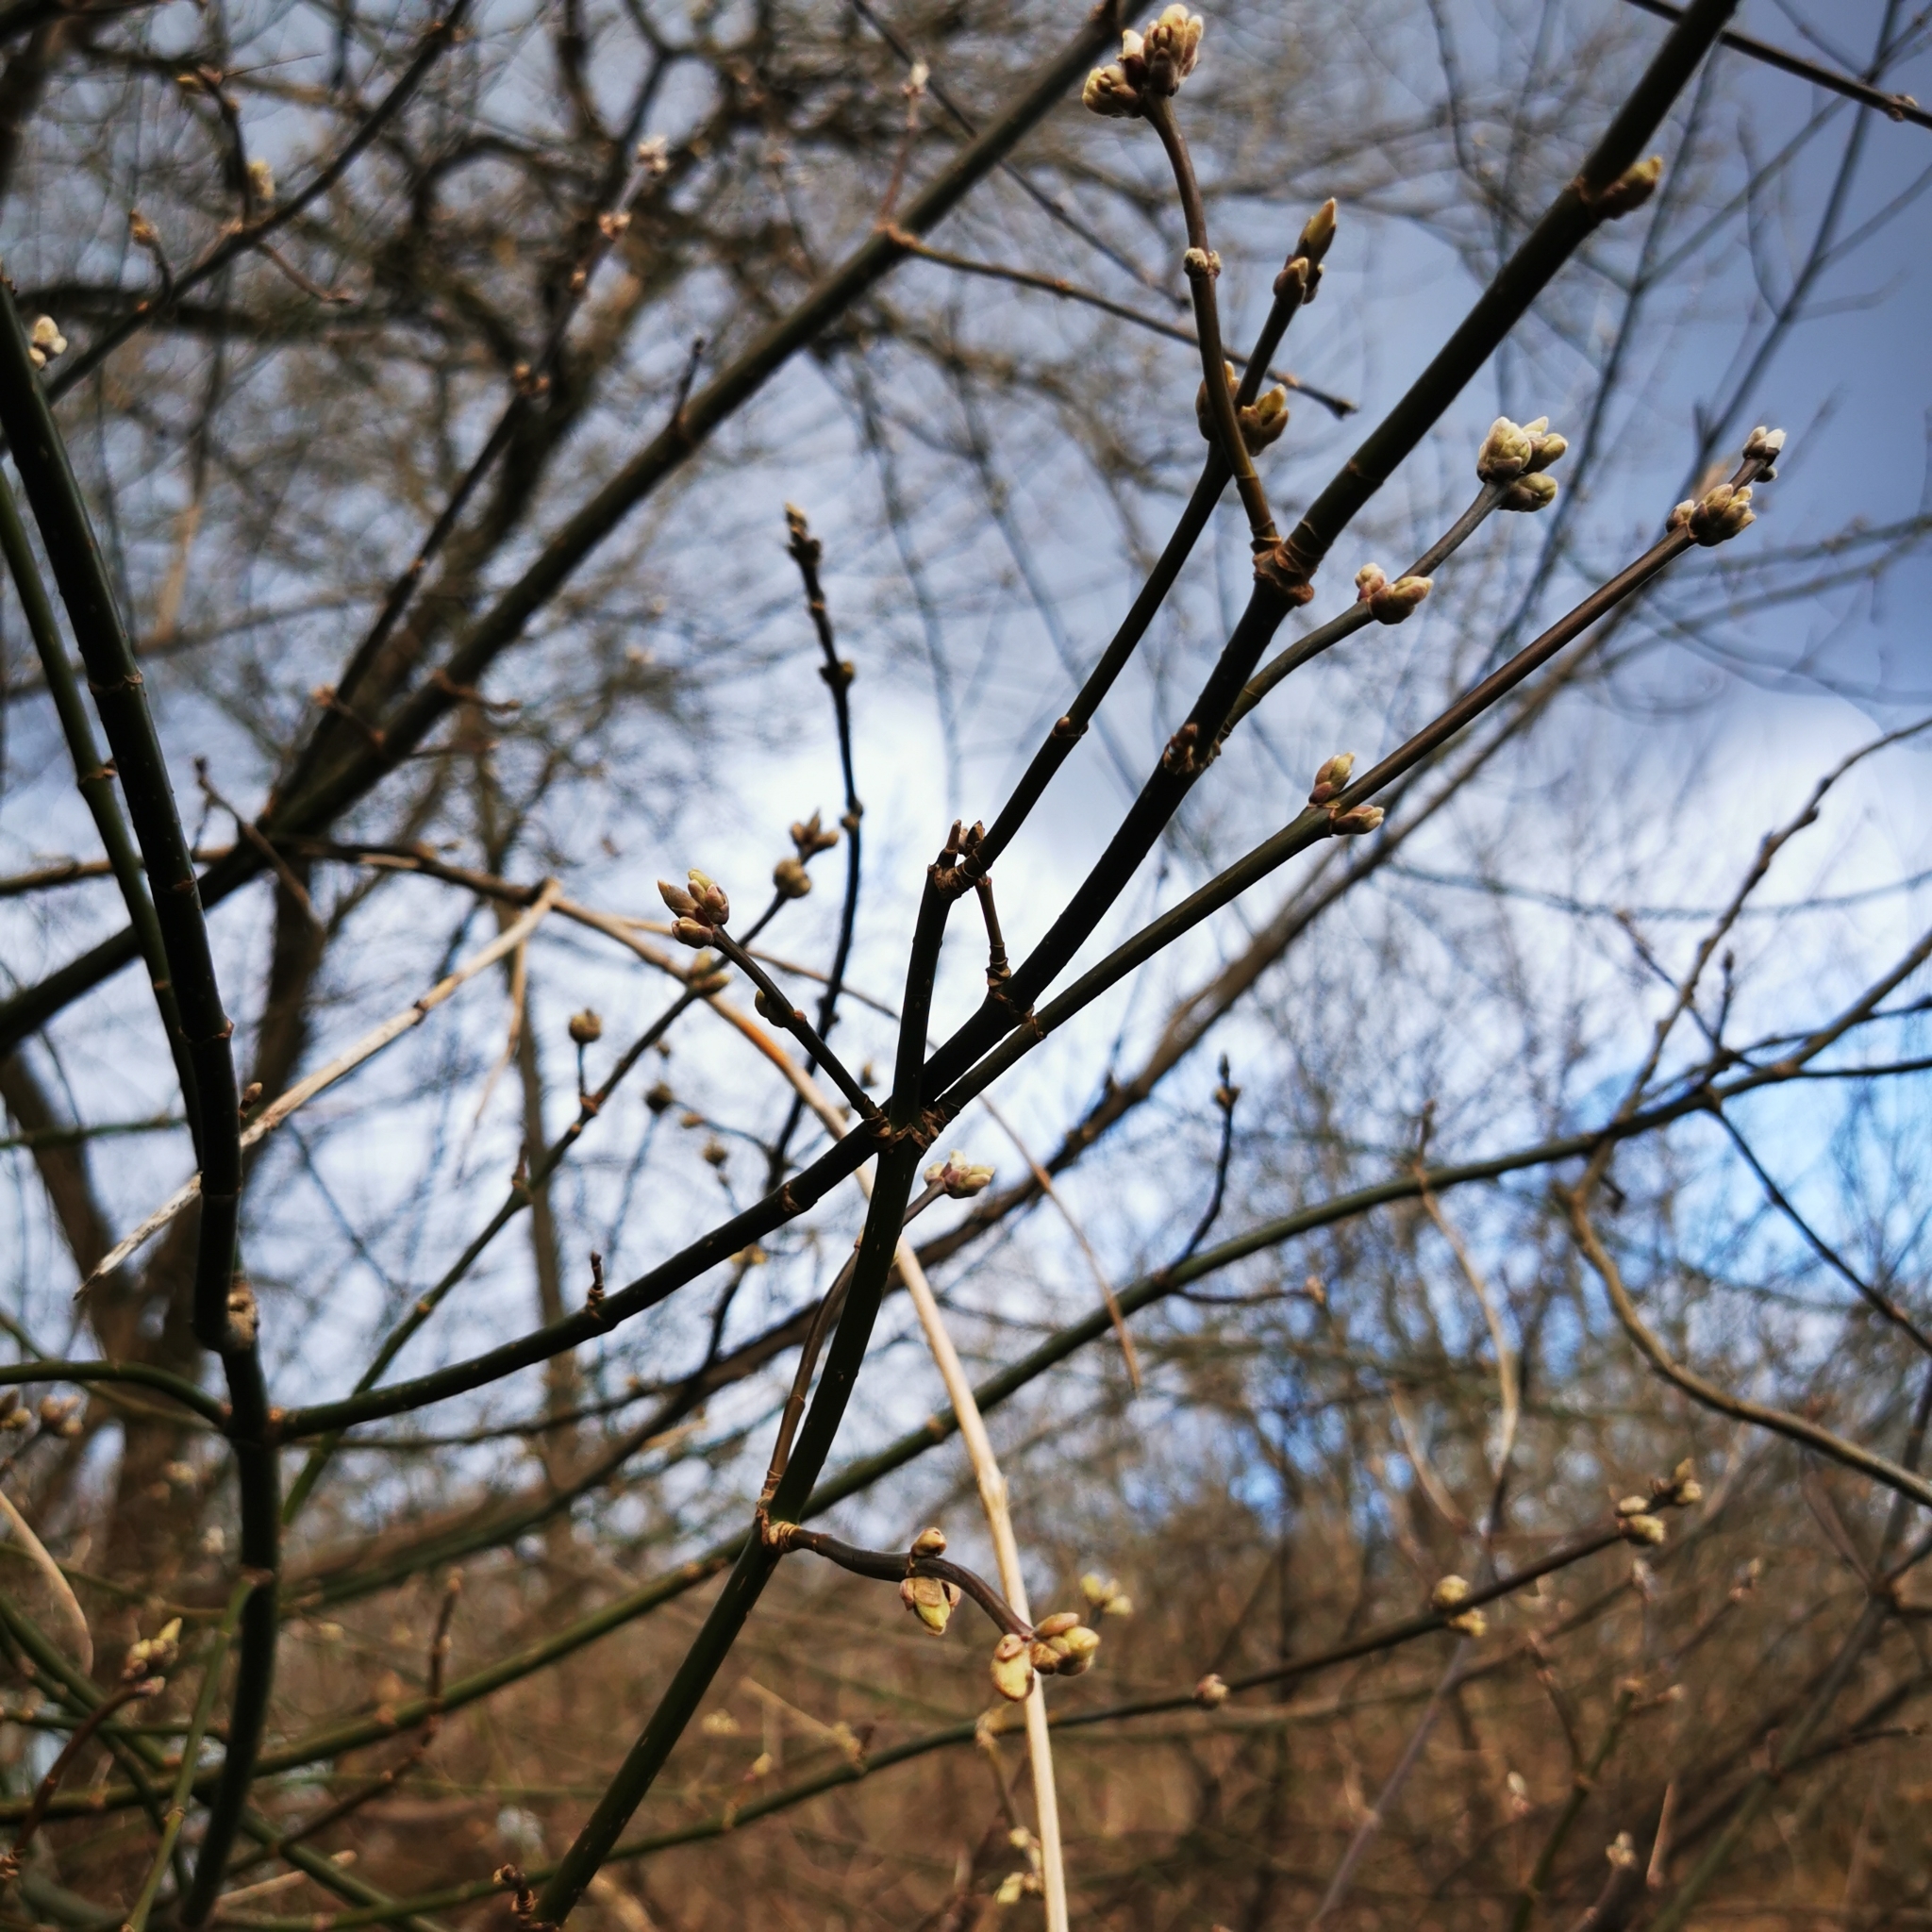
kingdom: Plantae
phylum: Tracheophyta
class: Magnoliopsida
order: Sapindales
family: Sapindaceae
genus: Acer
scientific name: Acer negundo
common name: Ashleaf maple
